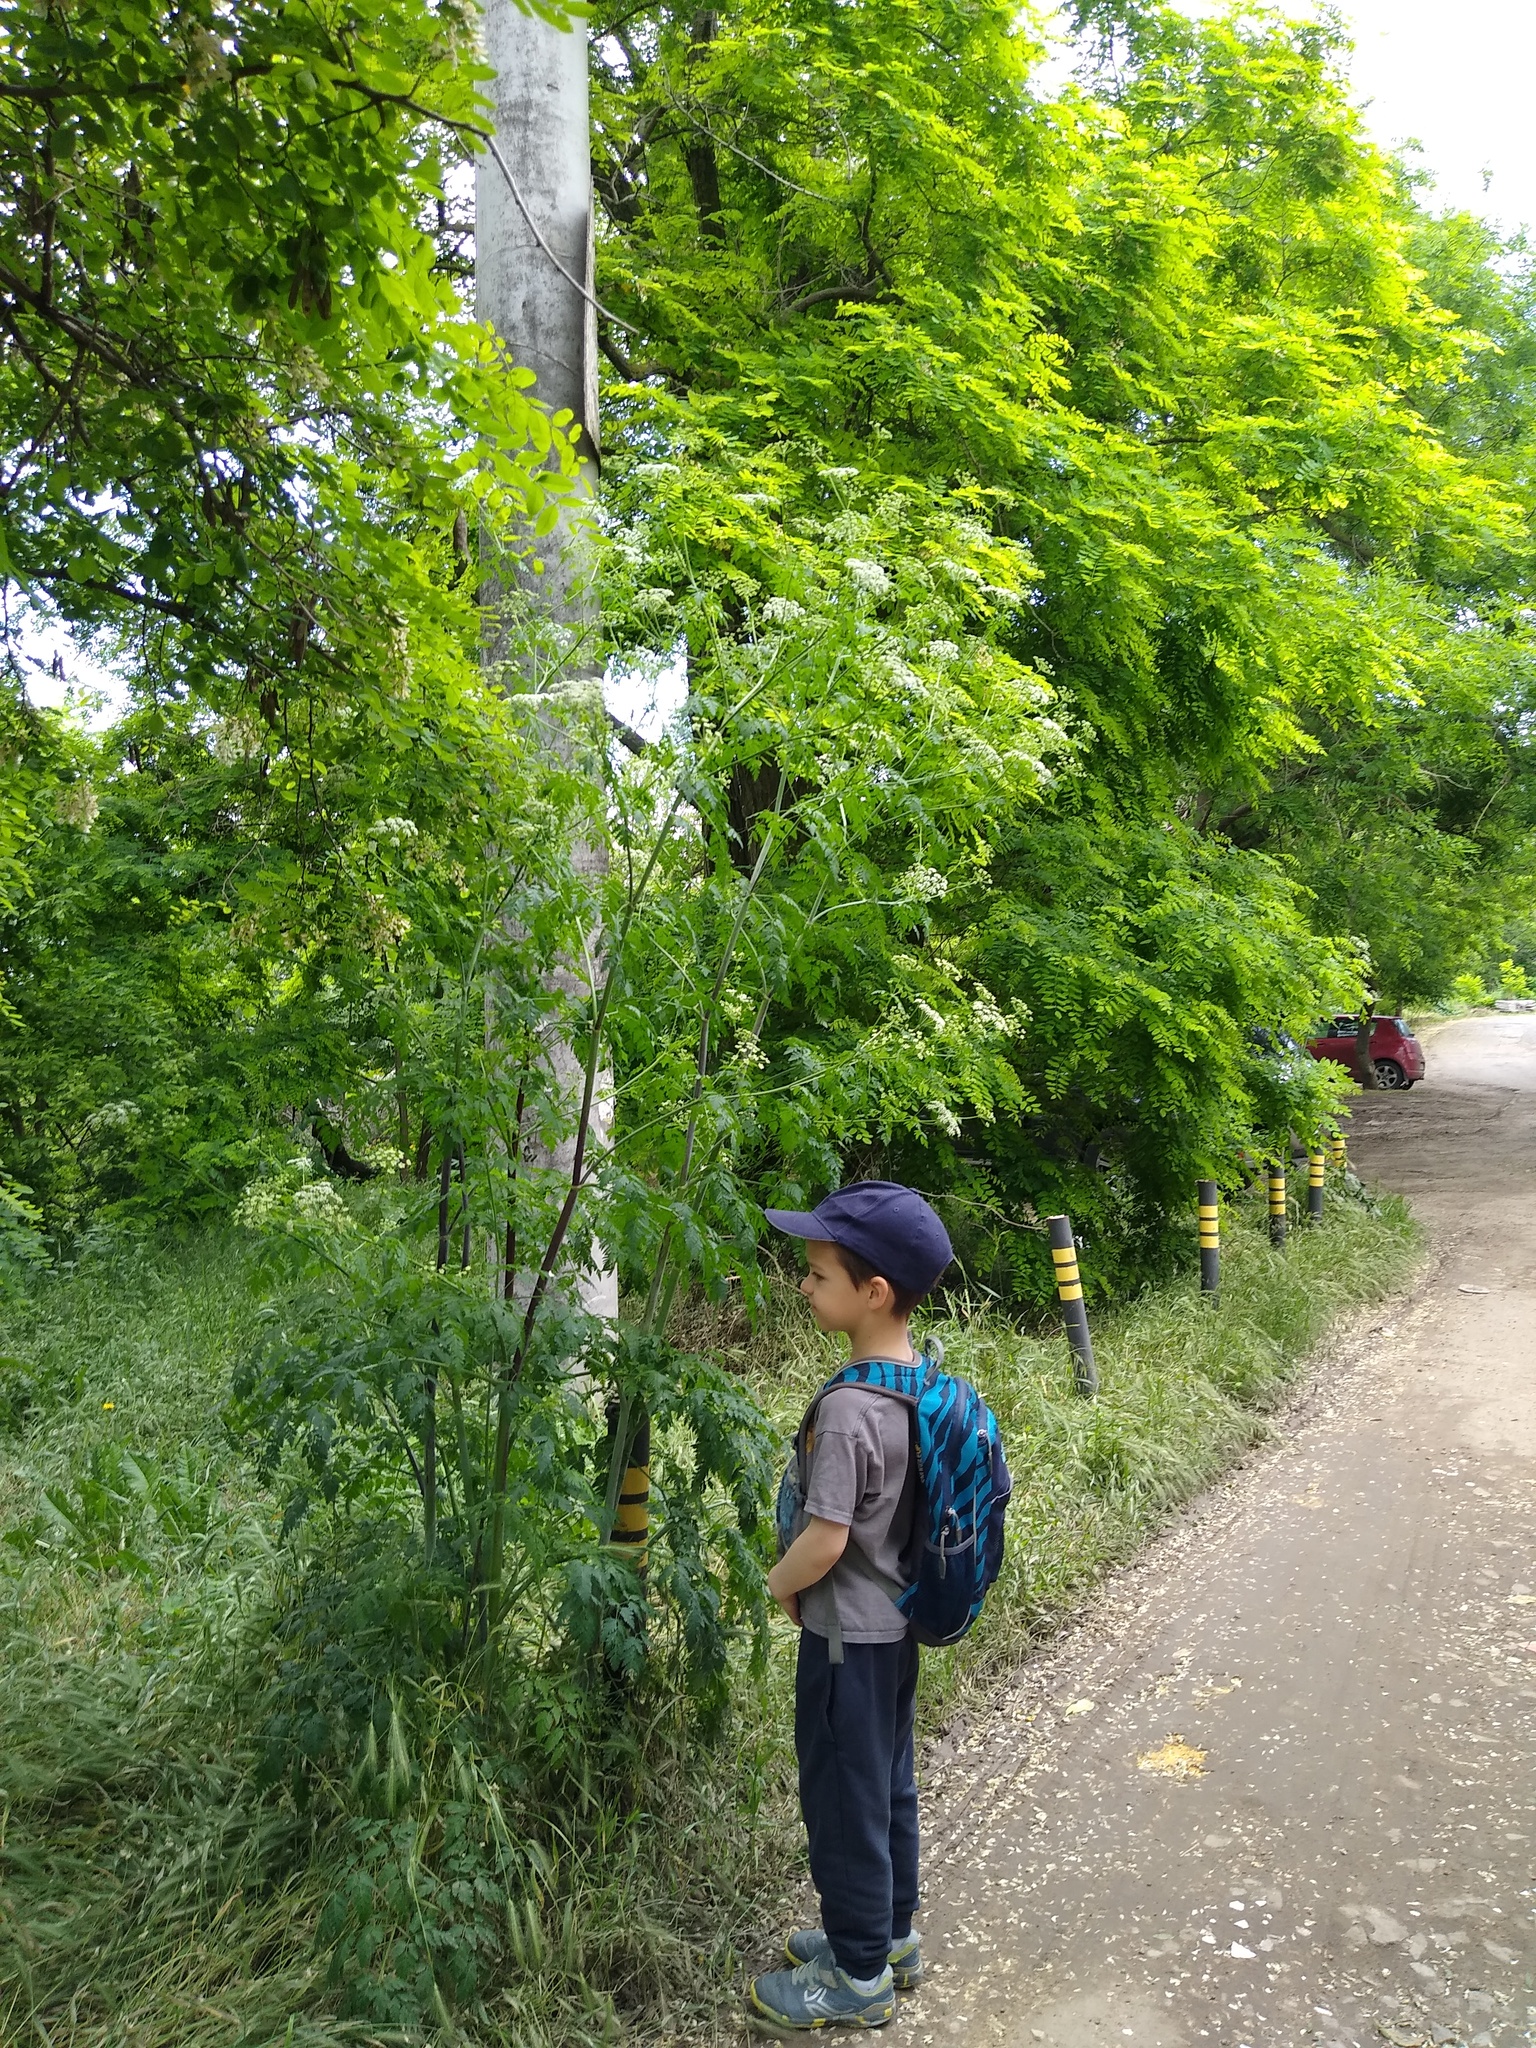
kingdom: Plantae
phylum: Tracheophyta
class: Magnoliopsida
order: Apiales
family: Apiaceae
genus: Conium
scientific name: Conium maculatum
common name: Hemlock
